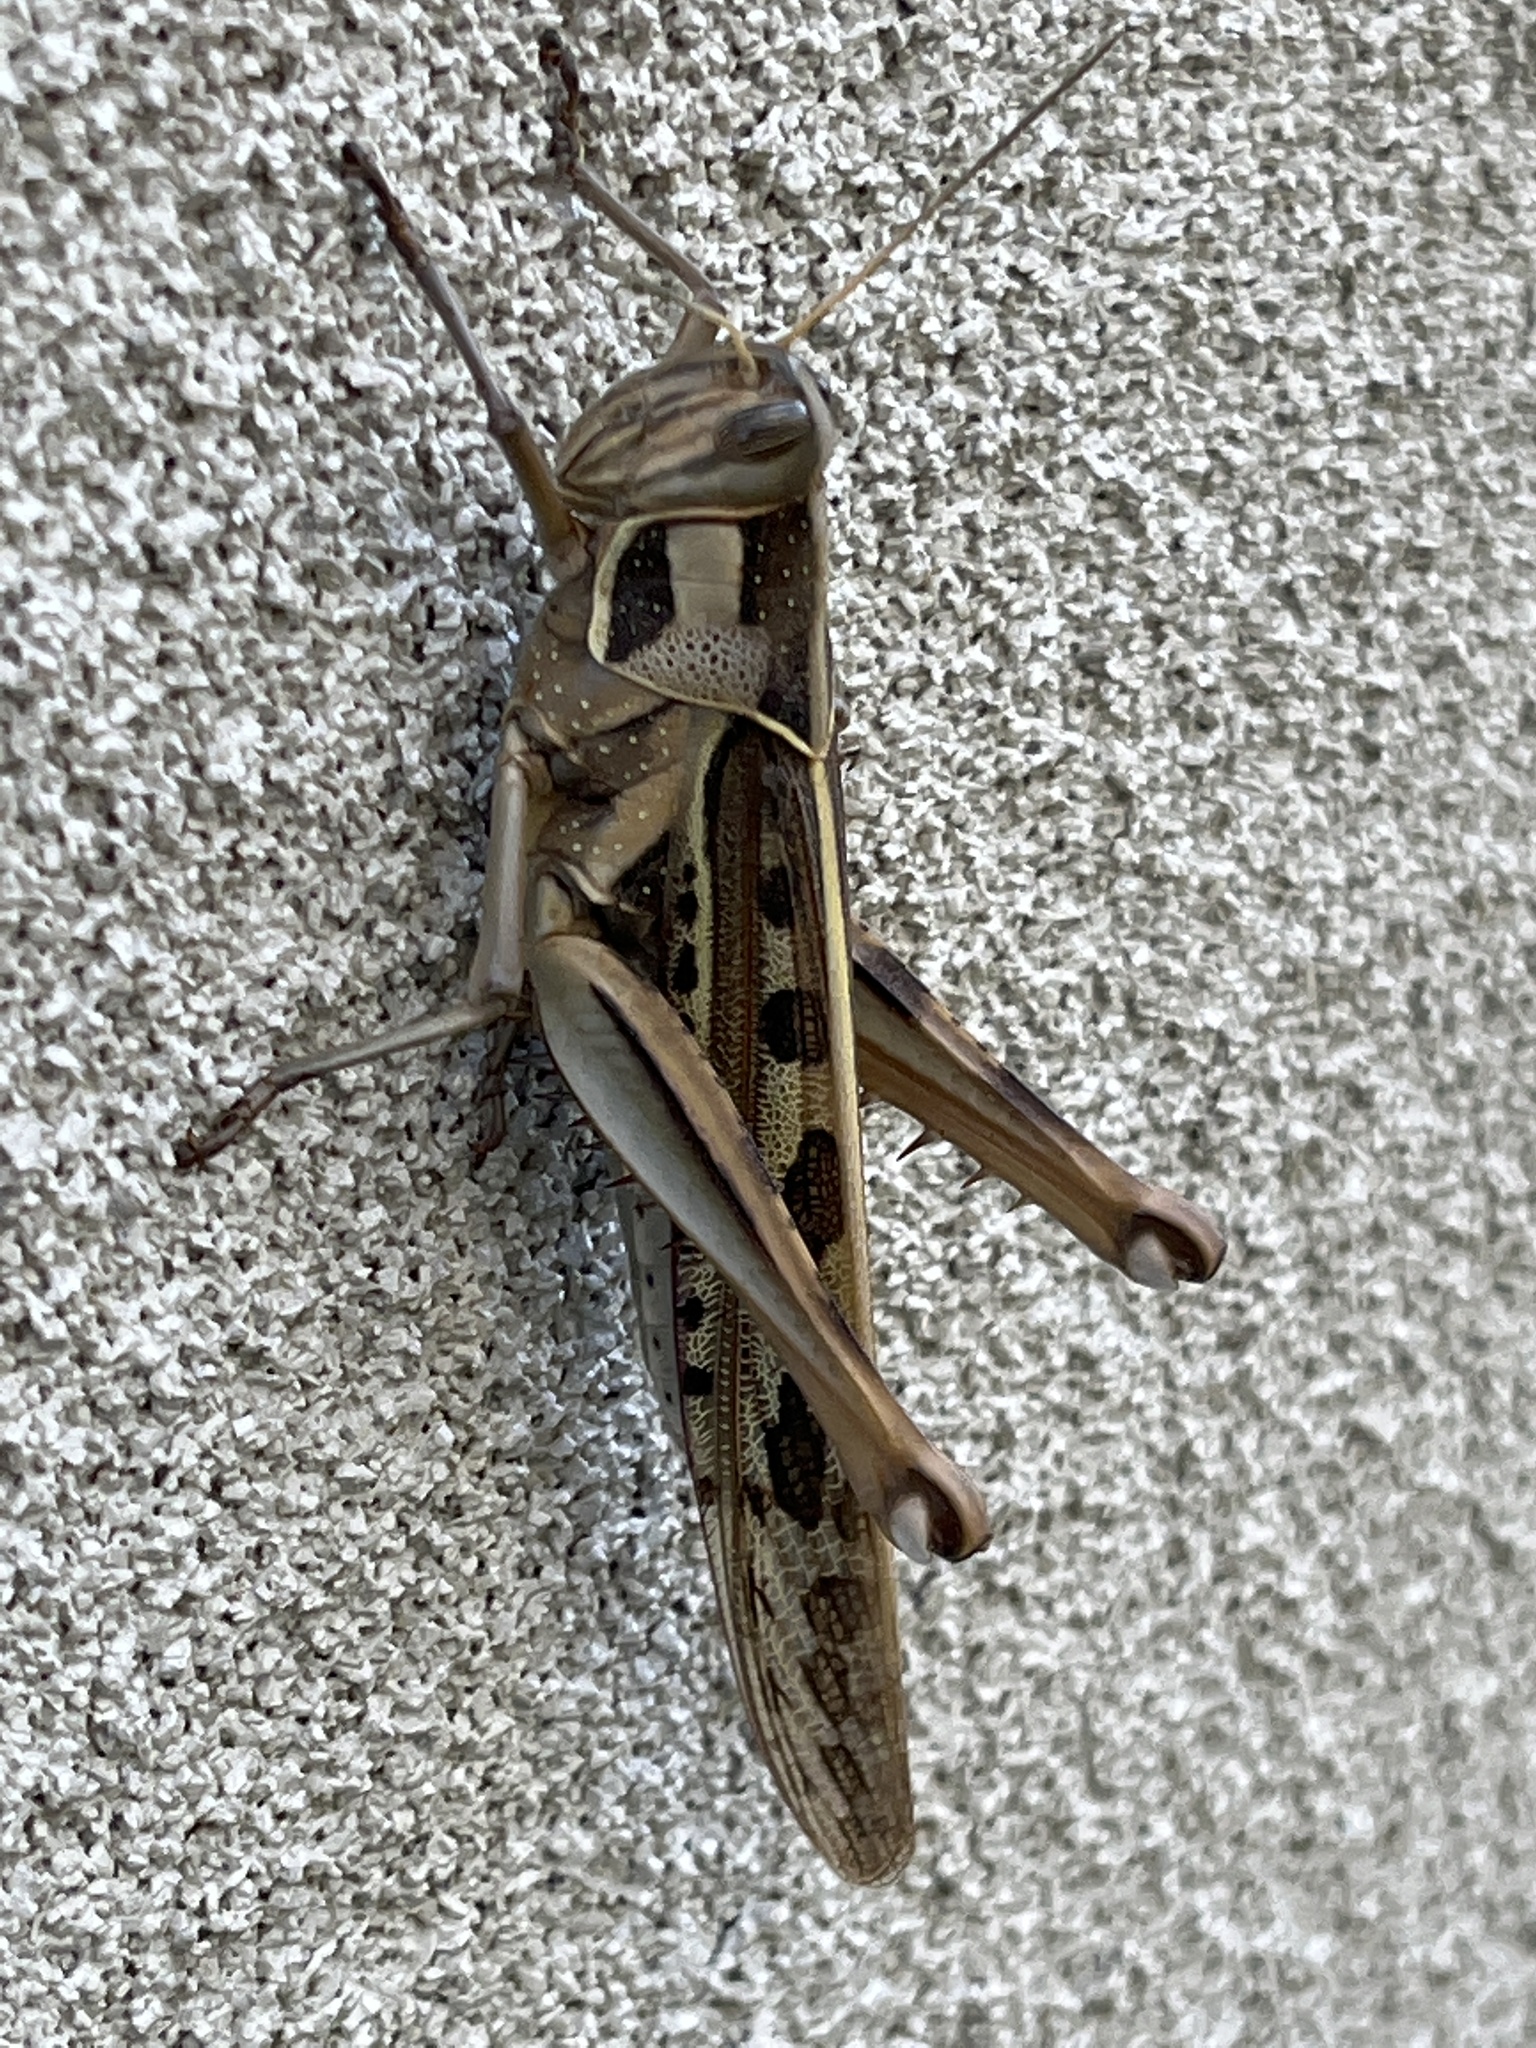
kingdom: Animalia
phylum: Arthropoda
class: Insecta
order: Orthoptera
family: Acrididae
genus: Cyrtacanthacris
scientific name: Cyrtacanthacris tatarica
